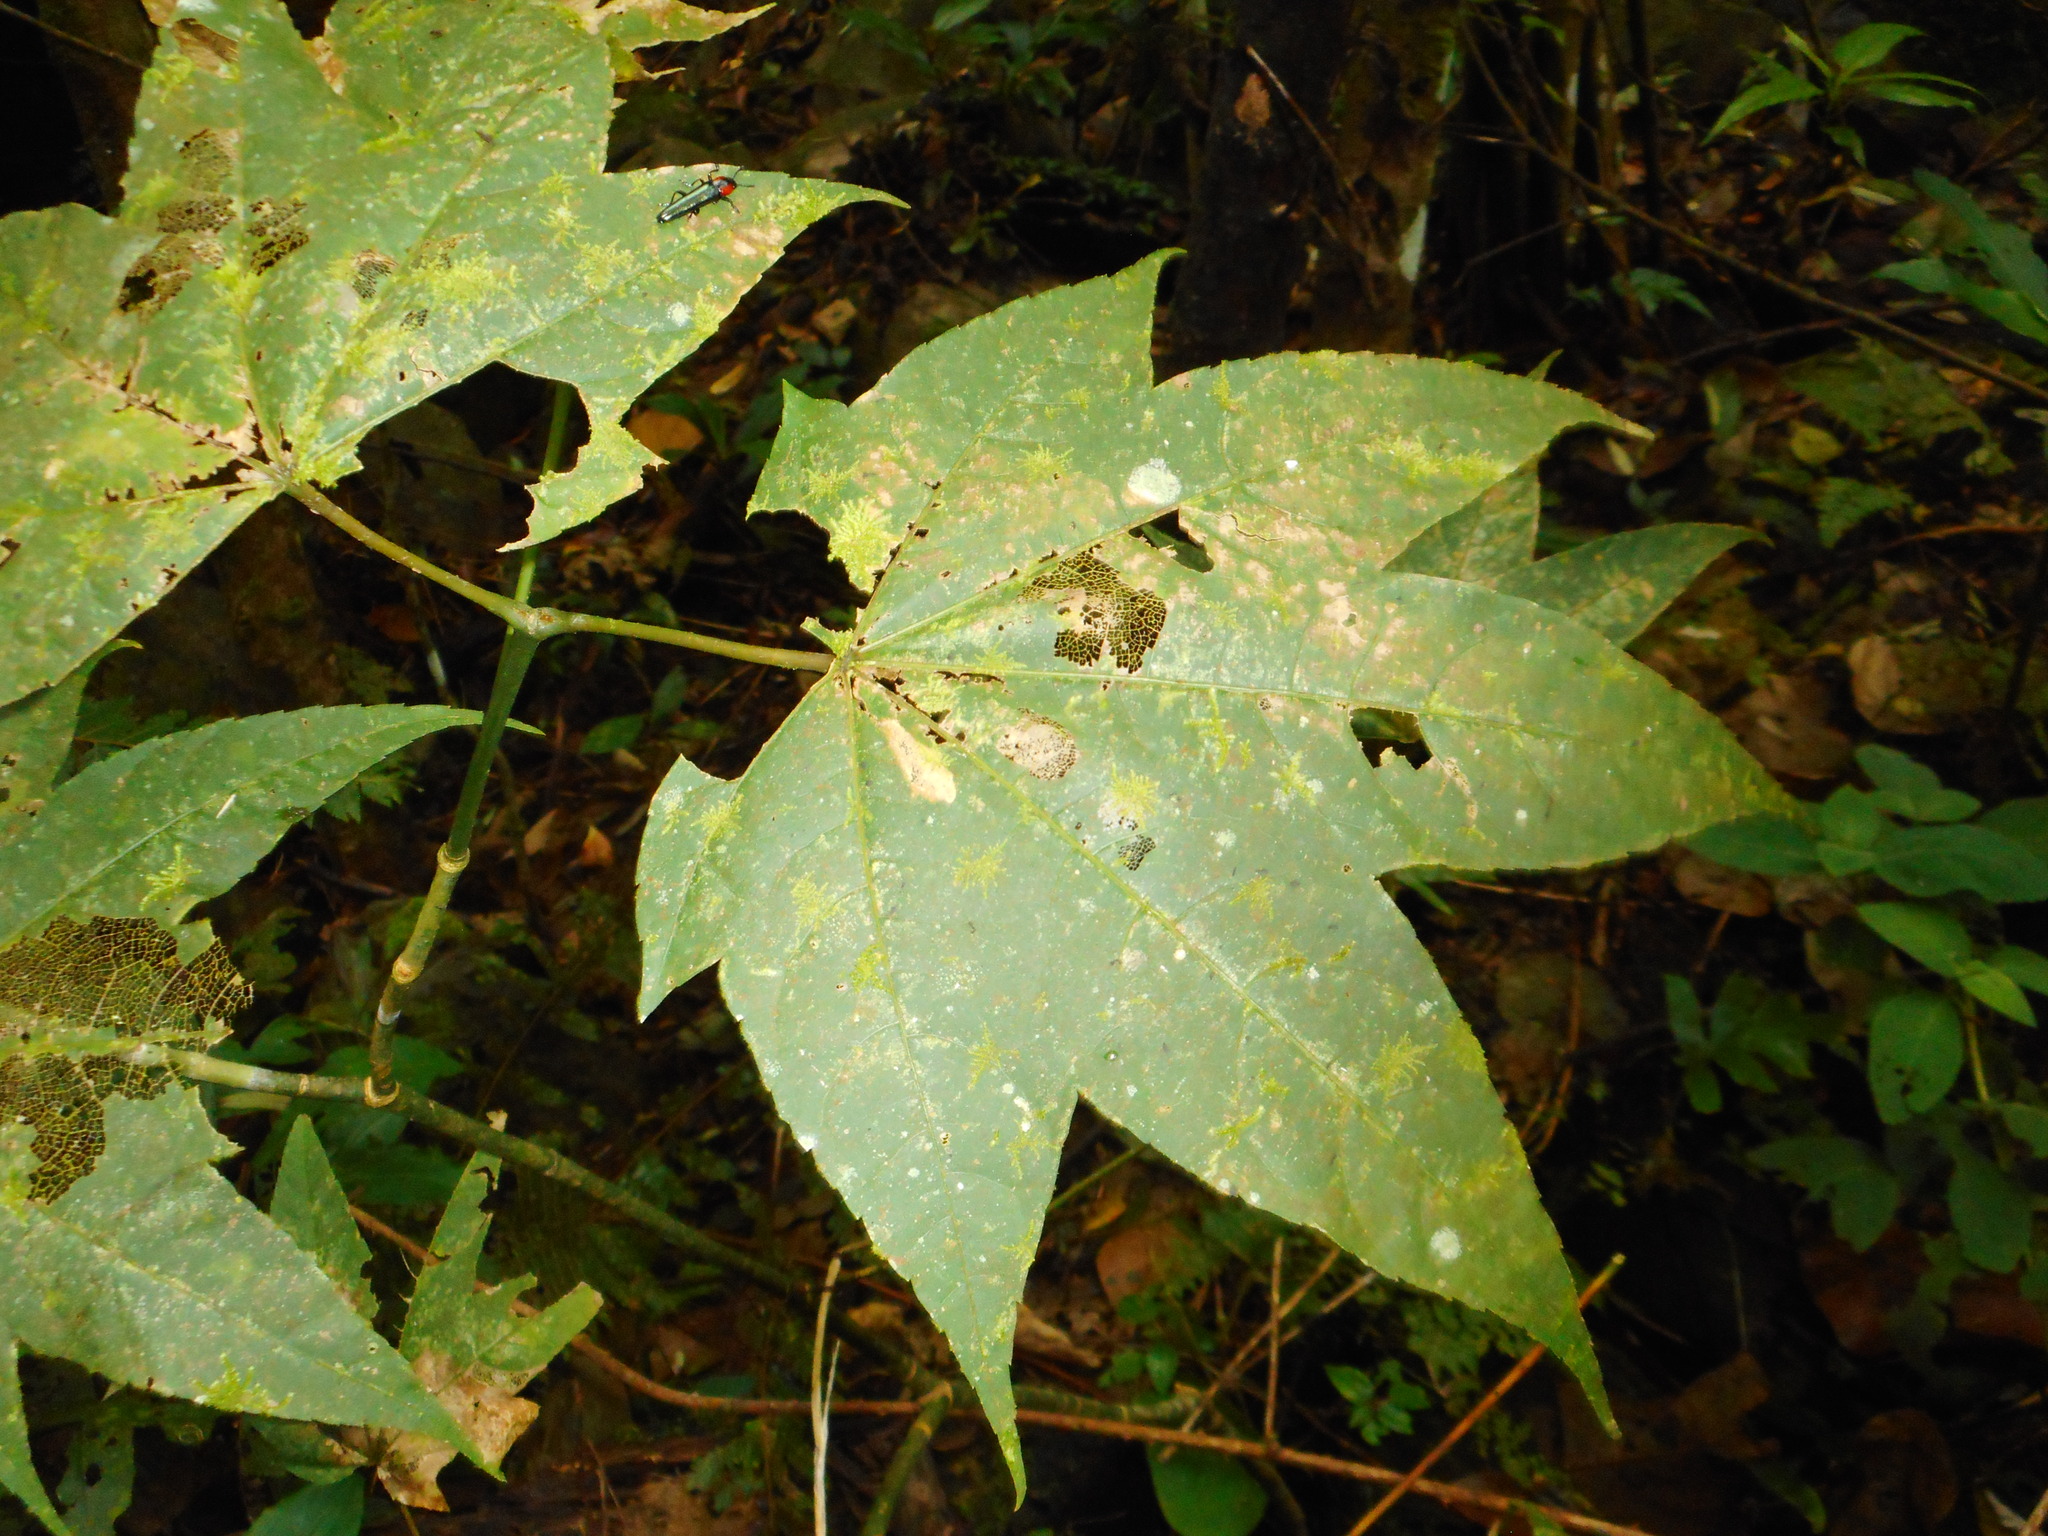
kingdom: Plantae
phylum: Tracheophyta
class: Magnoliopsida
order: Sapindales
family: Sapindaceae
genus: Acer
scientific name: Acer campbellii
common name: Campbell's maple
